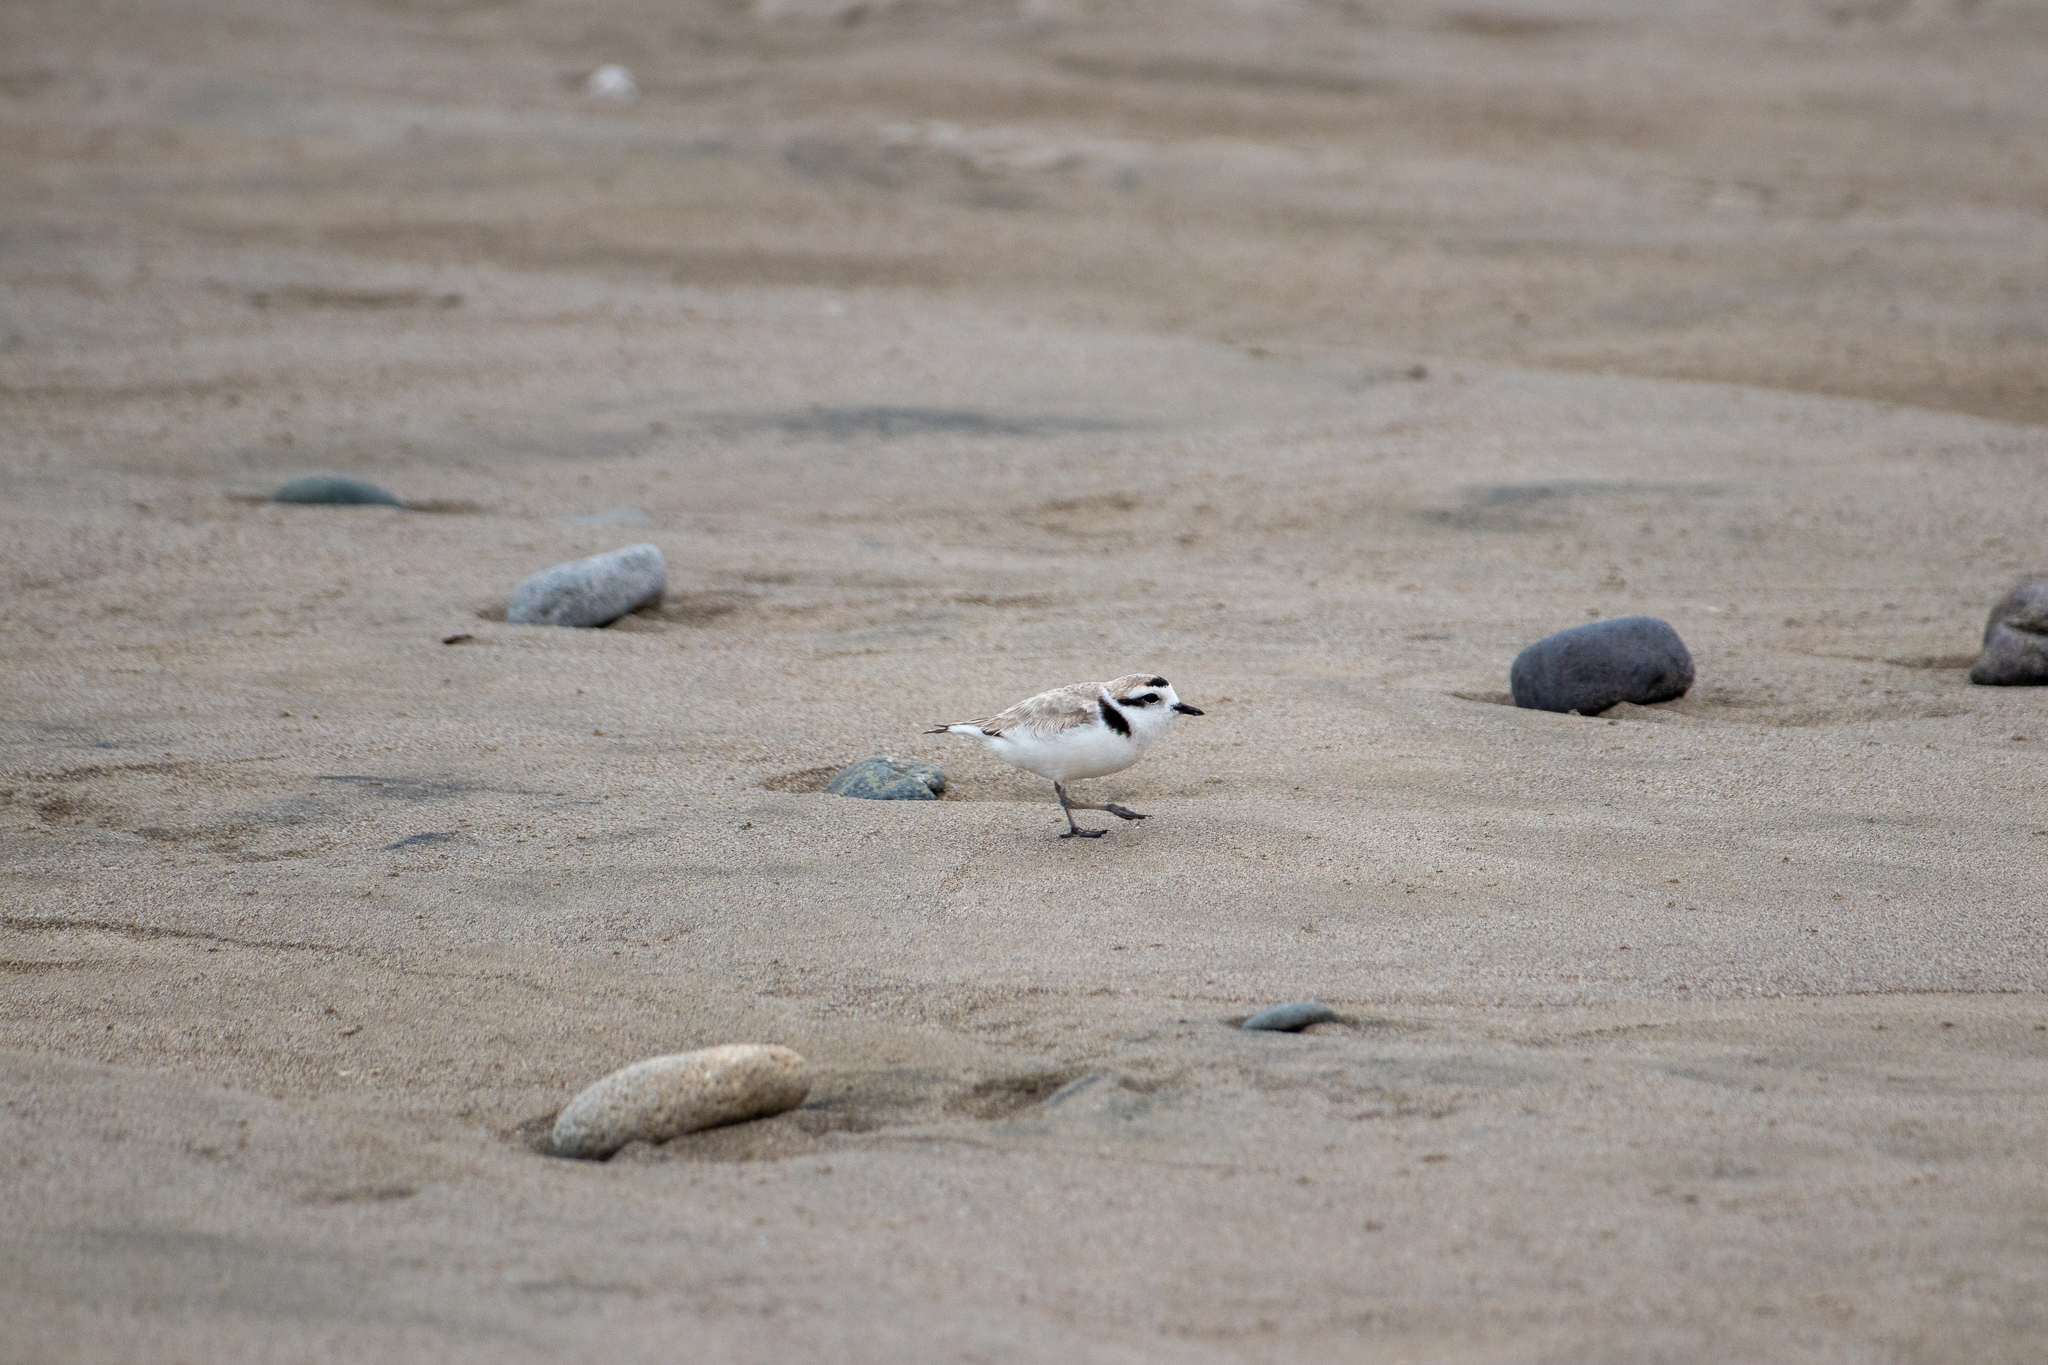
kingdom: Animalia
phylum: Chordata
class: Aves
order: Charadriiformes
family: Charadriidae
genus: Anarhynchus
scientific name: Anarhynchus
